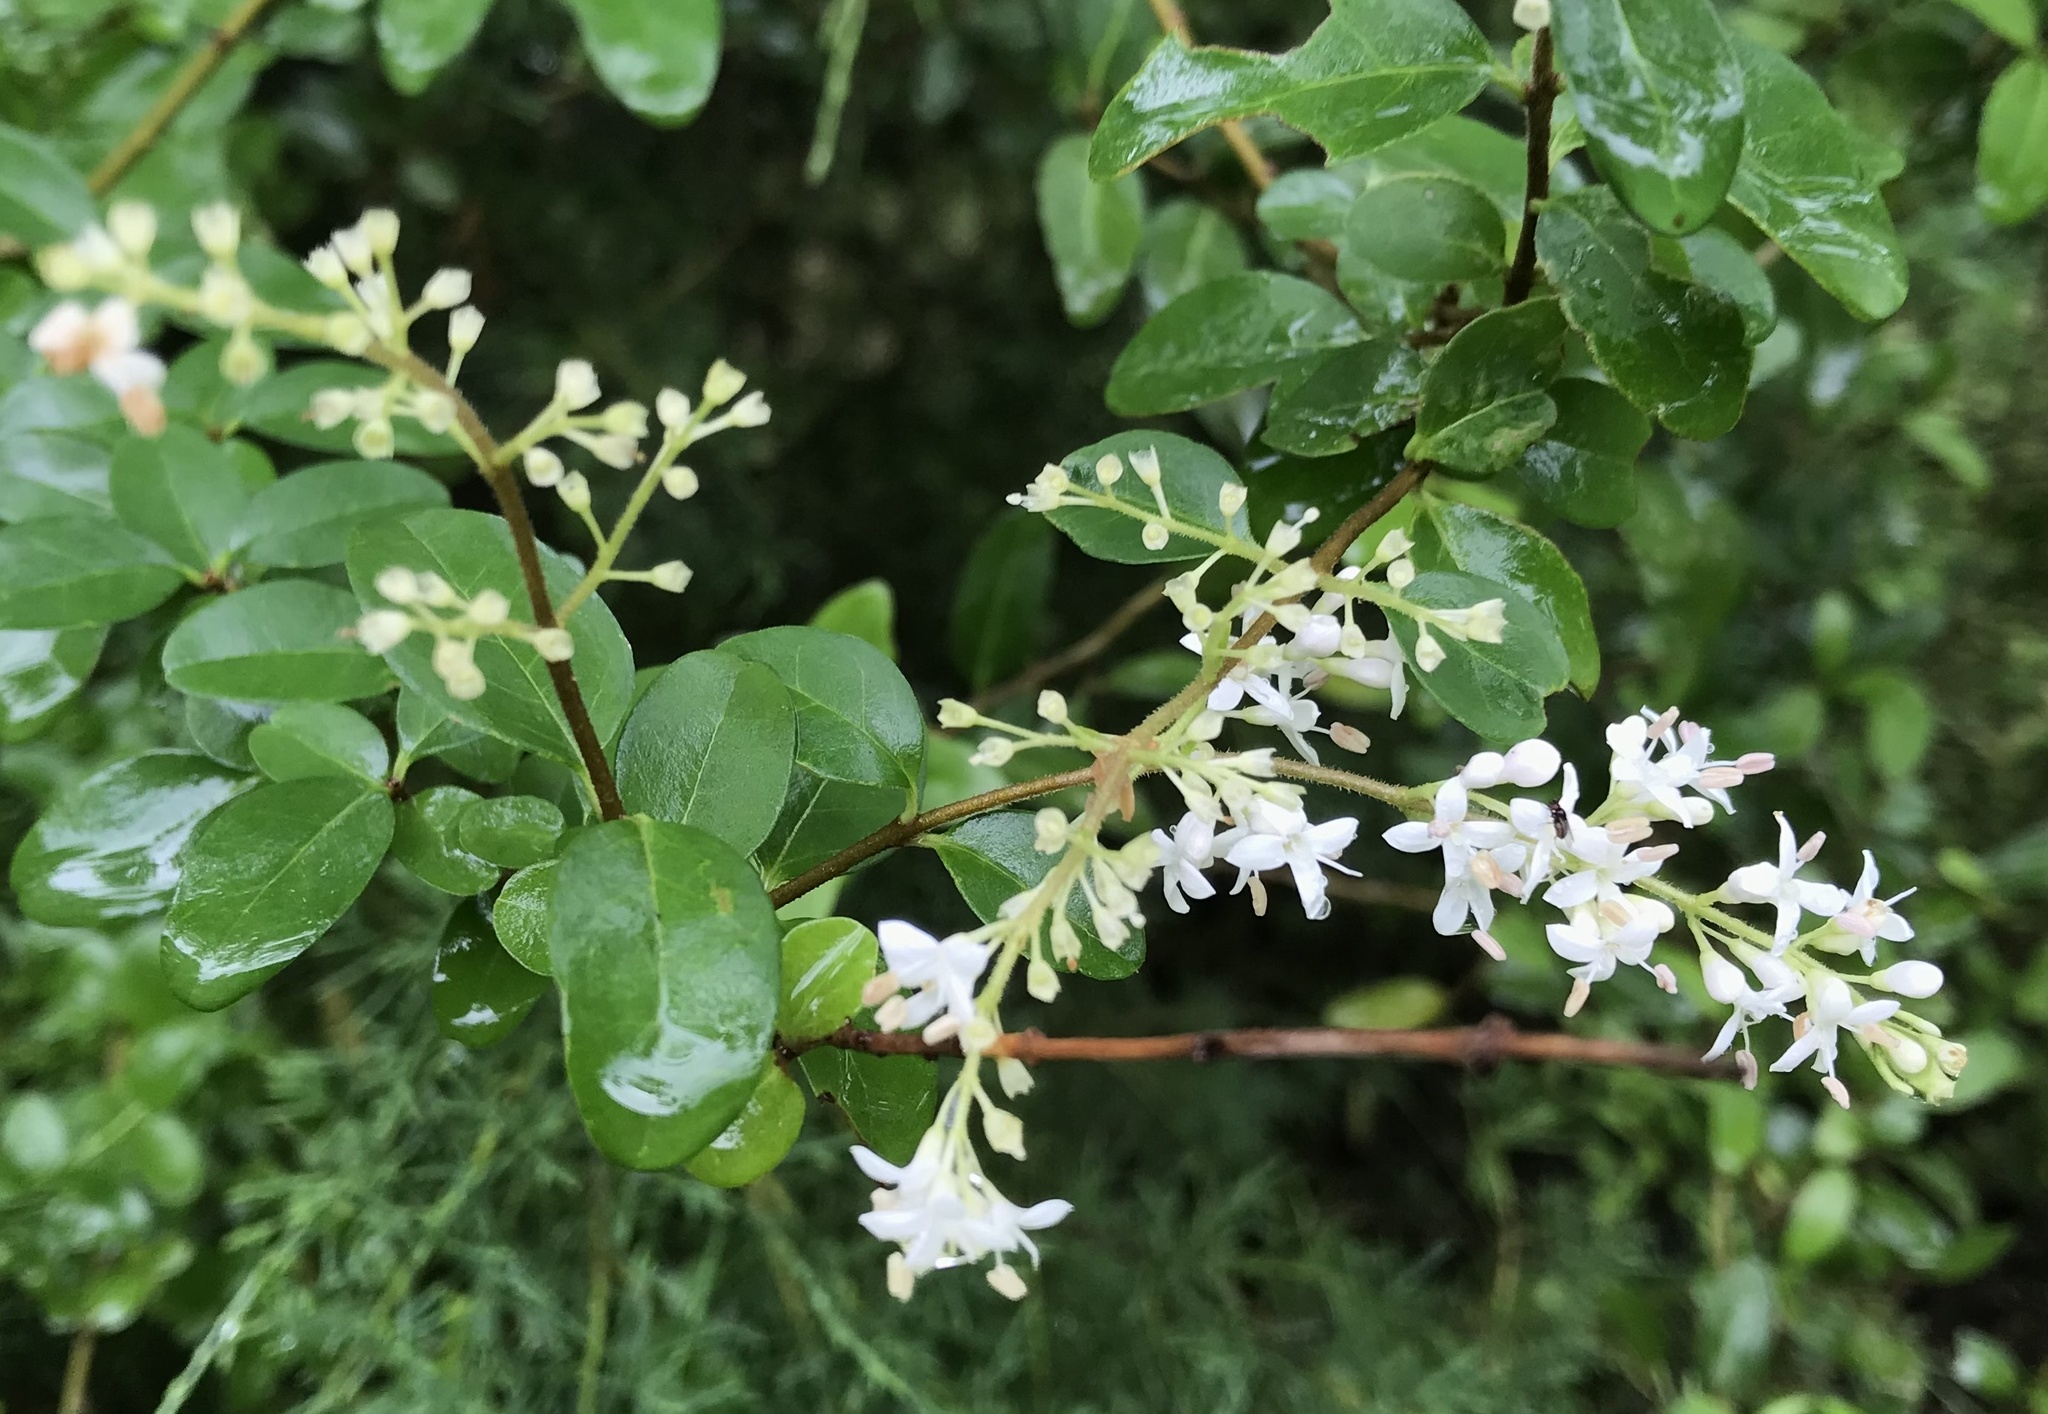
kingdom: Plantae
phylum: Tracheophyta
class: Magnoliopsida
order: Lamiales
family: Oleaceae
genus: Ligustrum
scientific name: Ligustrum sinense
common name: Chinese privet
